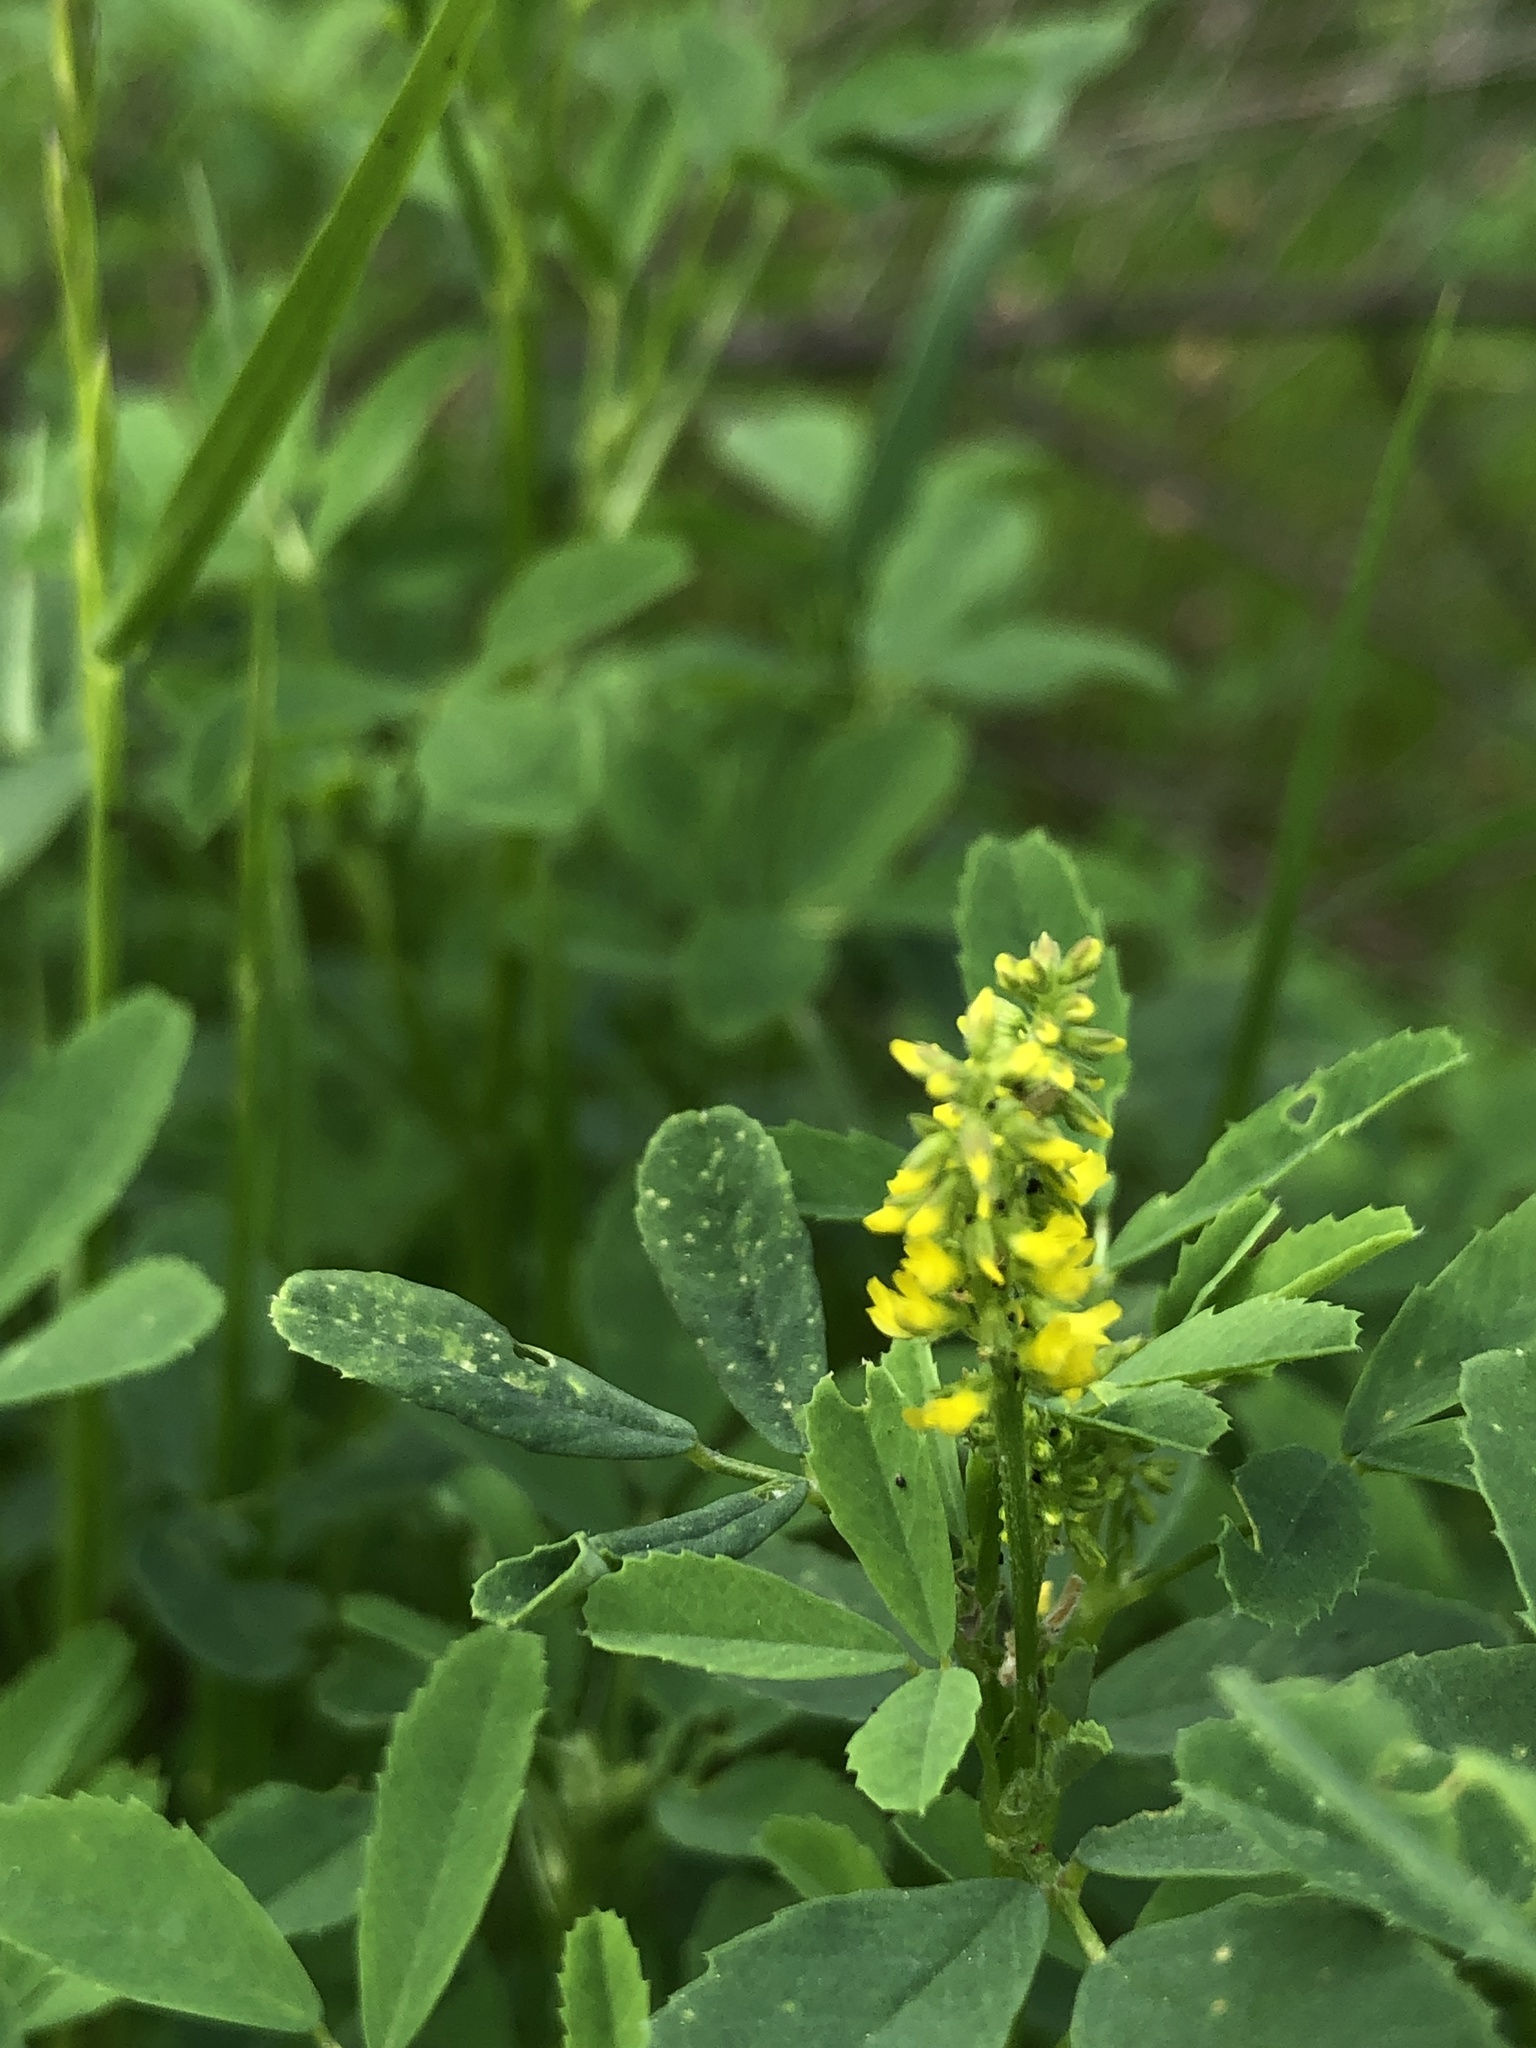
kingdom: Plantae
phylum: Tracheophyta
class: Magnoliopsida
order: Fabales
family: Fabaceae
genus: Melilotus
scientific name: Melilotus indicus
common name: Small melilot
